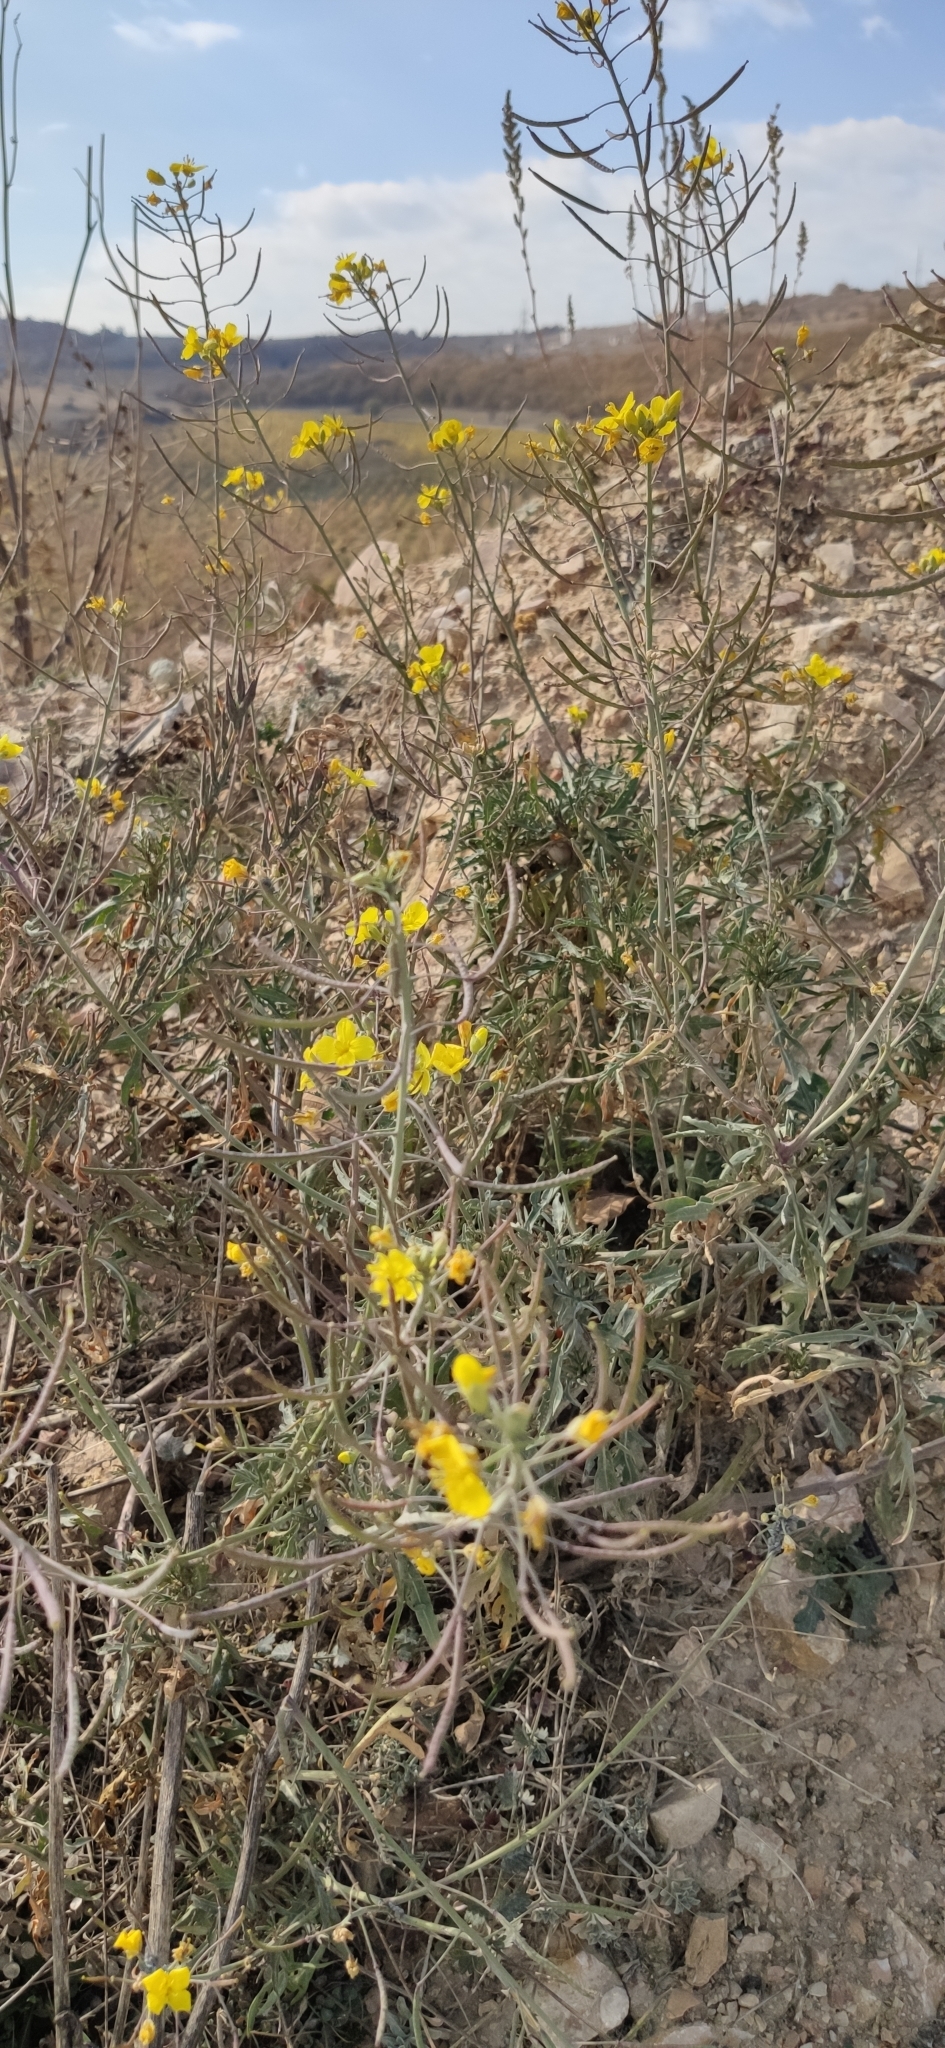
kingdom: Plantae
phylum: Tracheophyta
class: Magnoliopsida
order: Brassicales
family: Brassicaceae
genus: Diplotaxis
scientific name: Diplotaxis tenuifolia
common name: Perennial wall-rocket
